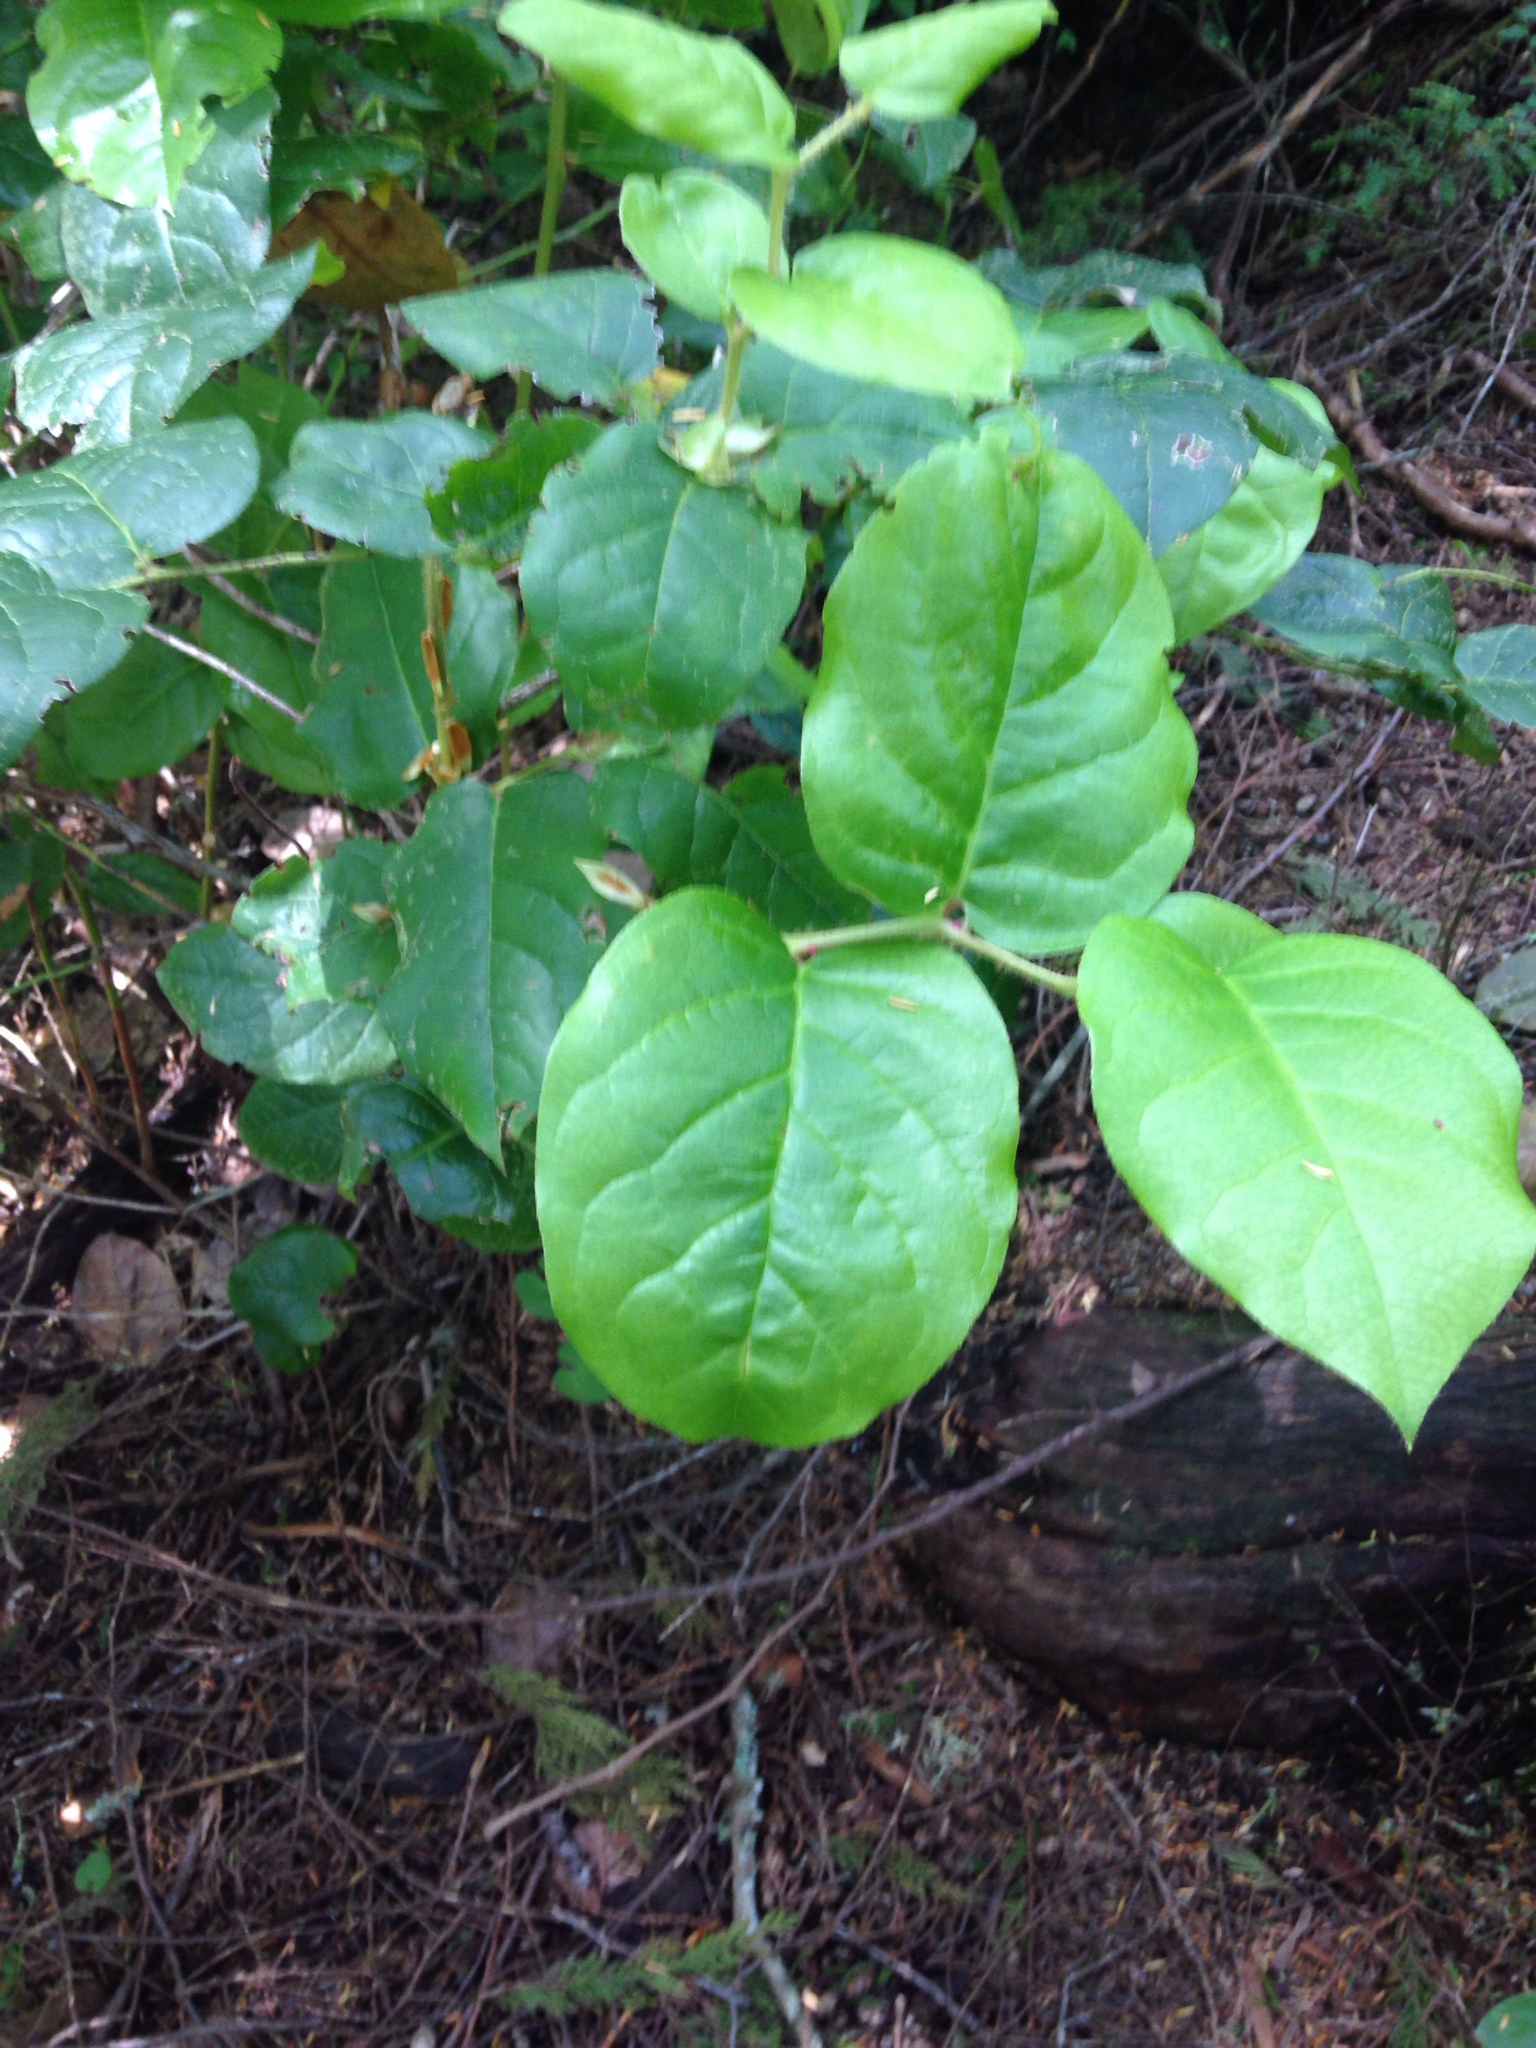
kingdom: Plantae
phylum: Tracheophyta
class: Magnoliopsida
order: Ericales
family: Ericaceae
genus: Gaultheria
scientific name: Gaultheria shallon
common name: Shallon
